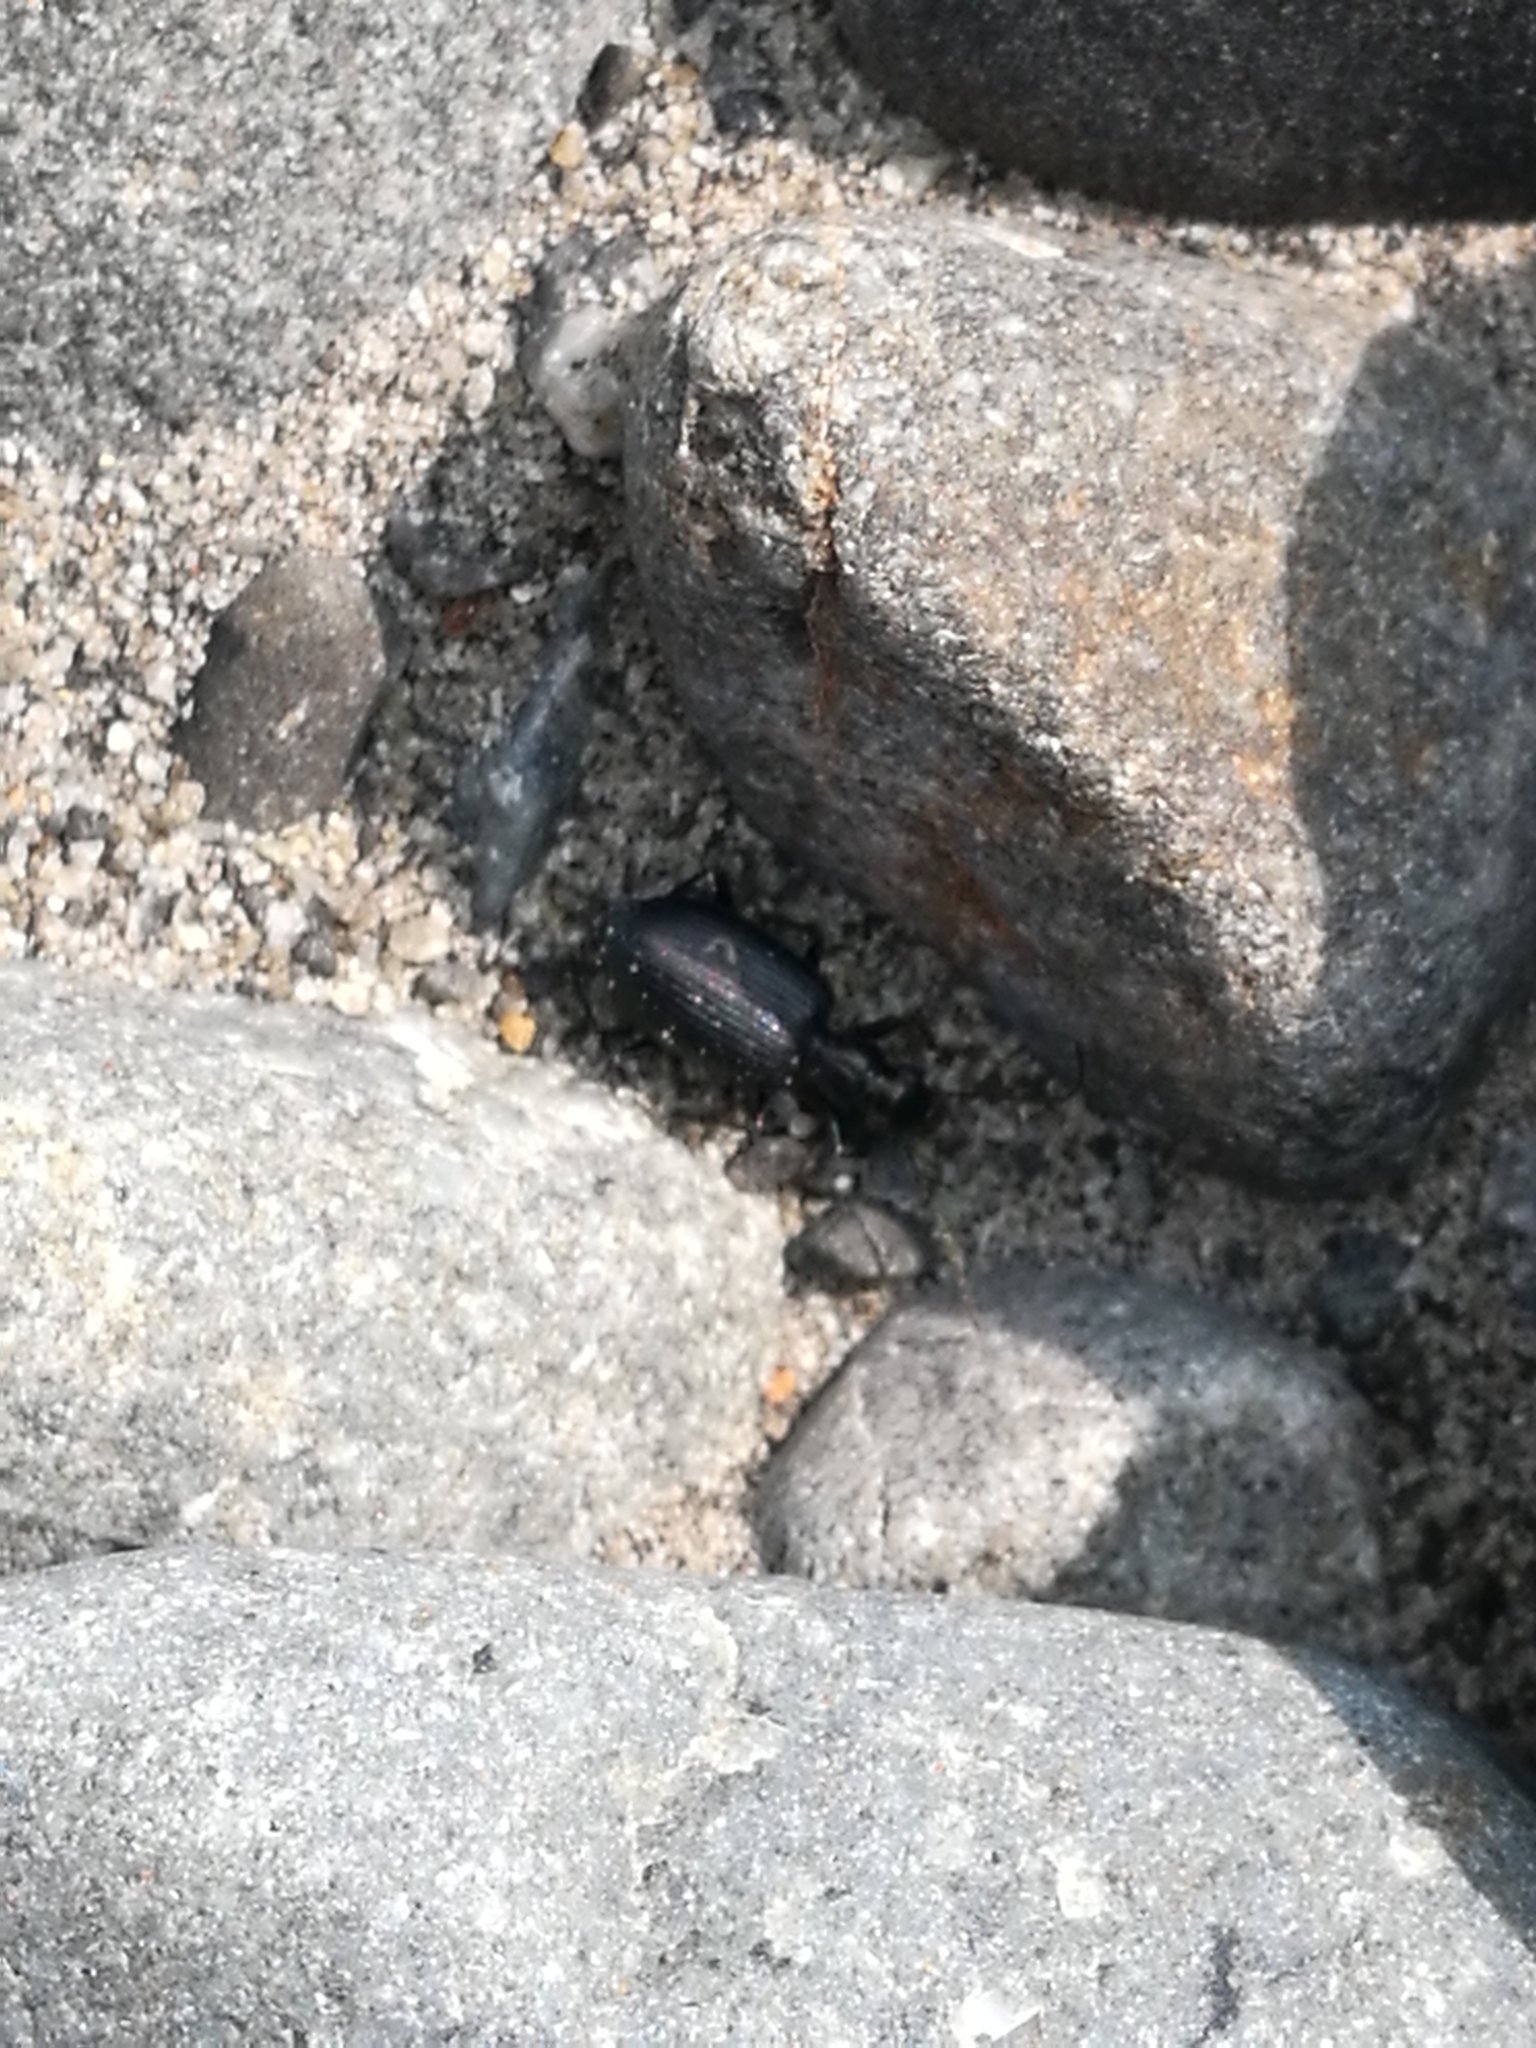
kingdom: Animalia
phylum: Arthropoda
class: Insecta
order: Coleoptera
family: Carabidae
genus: Actenonyx
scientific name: Actenonyx bembidioides
